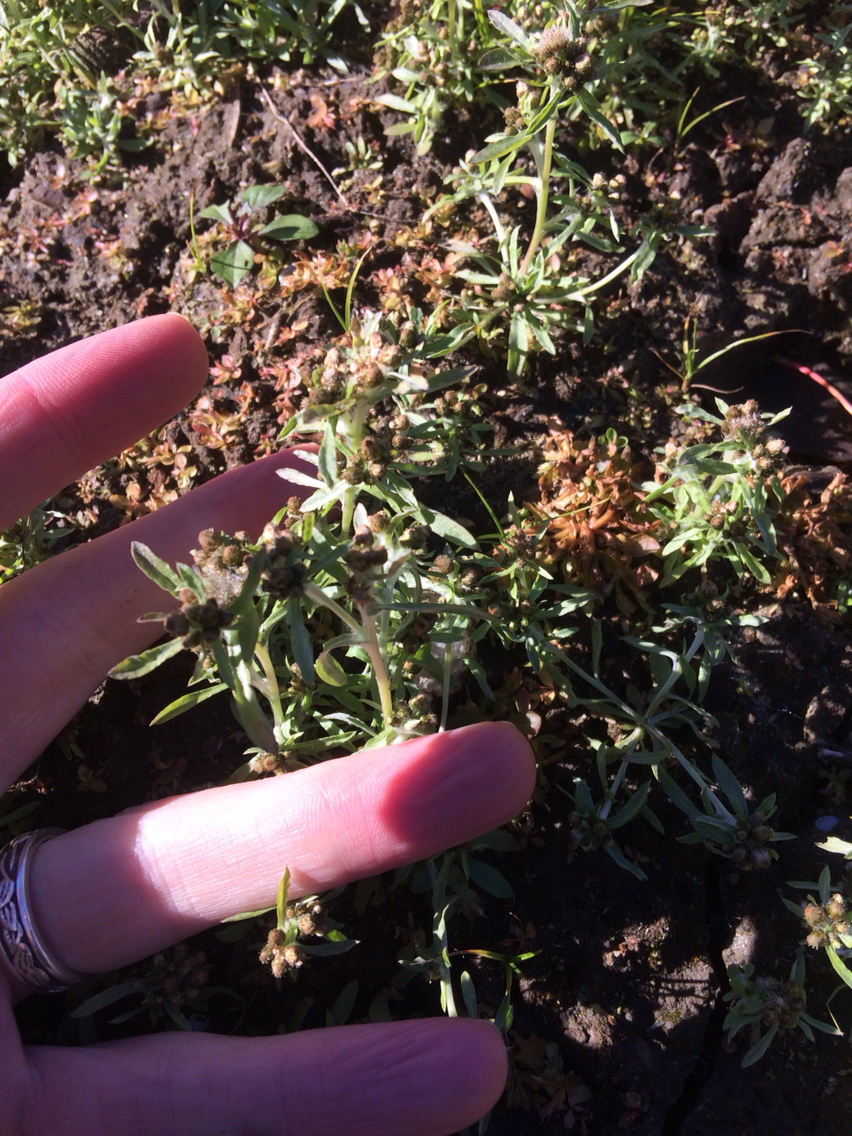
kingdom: Plantae
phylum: Tracheophyta
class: Magnoliopsida
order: Asterales
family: Asteraceae
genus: Gnaphalium
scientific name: Gnaphalium uliginosum
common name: Marsh cudweed
